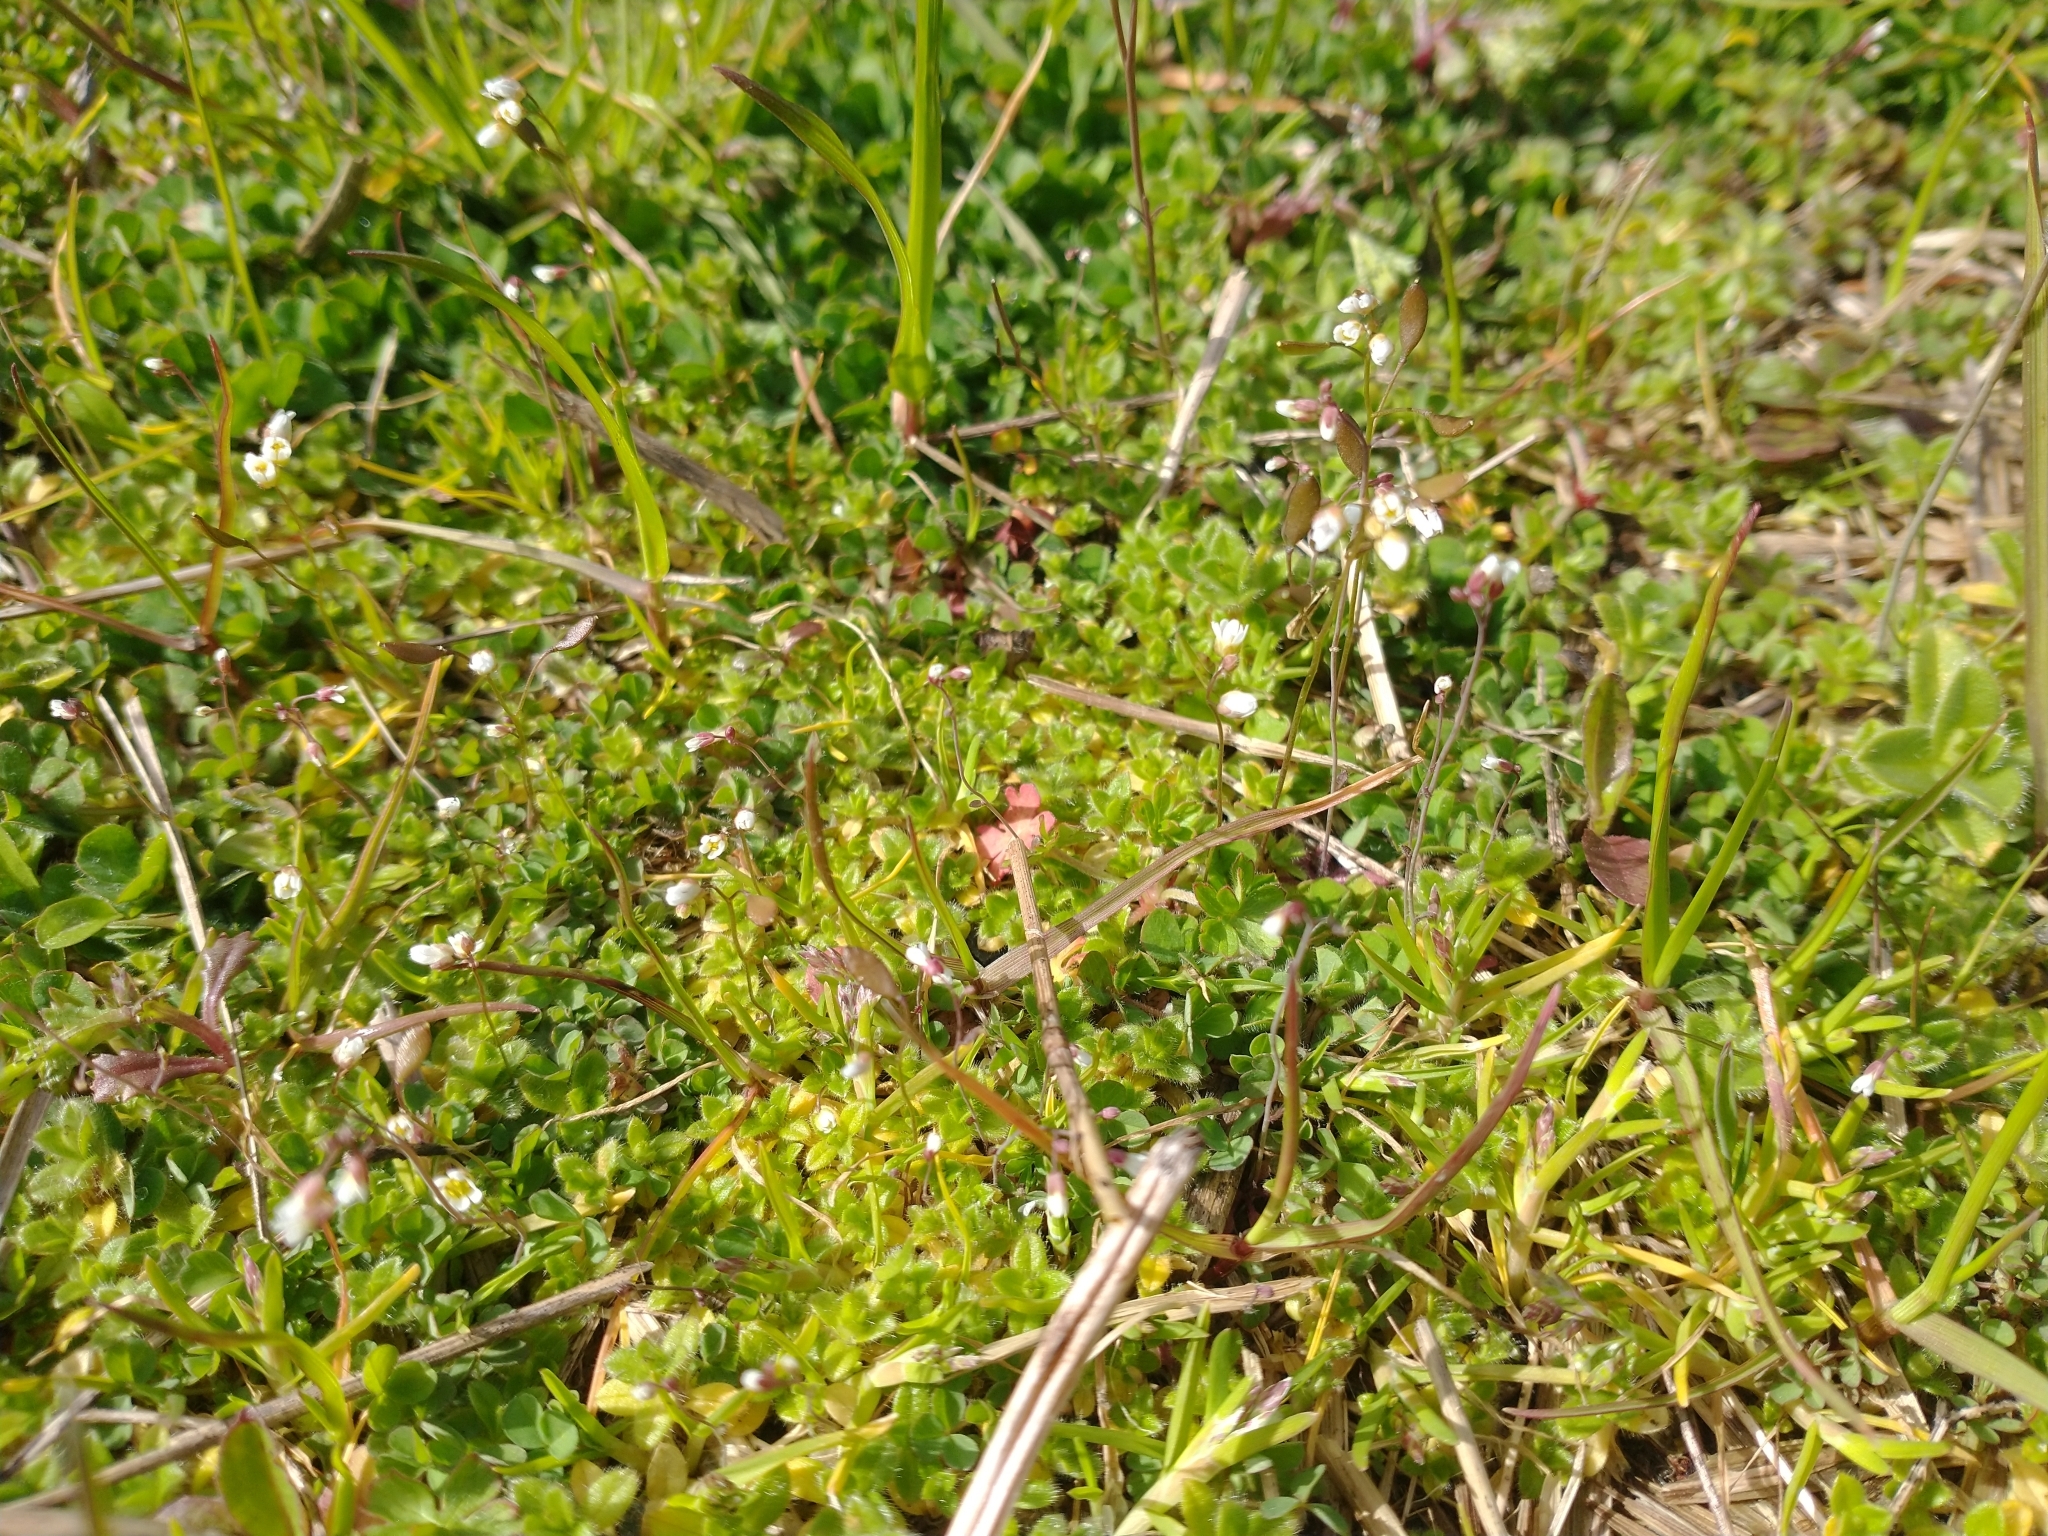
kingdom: Plantae
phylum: Tracheophyta
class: Magnoliopsida
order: Brassicales
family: Brassicaceae
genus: Draba
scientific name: Draba verna
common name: Spring draba
